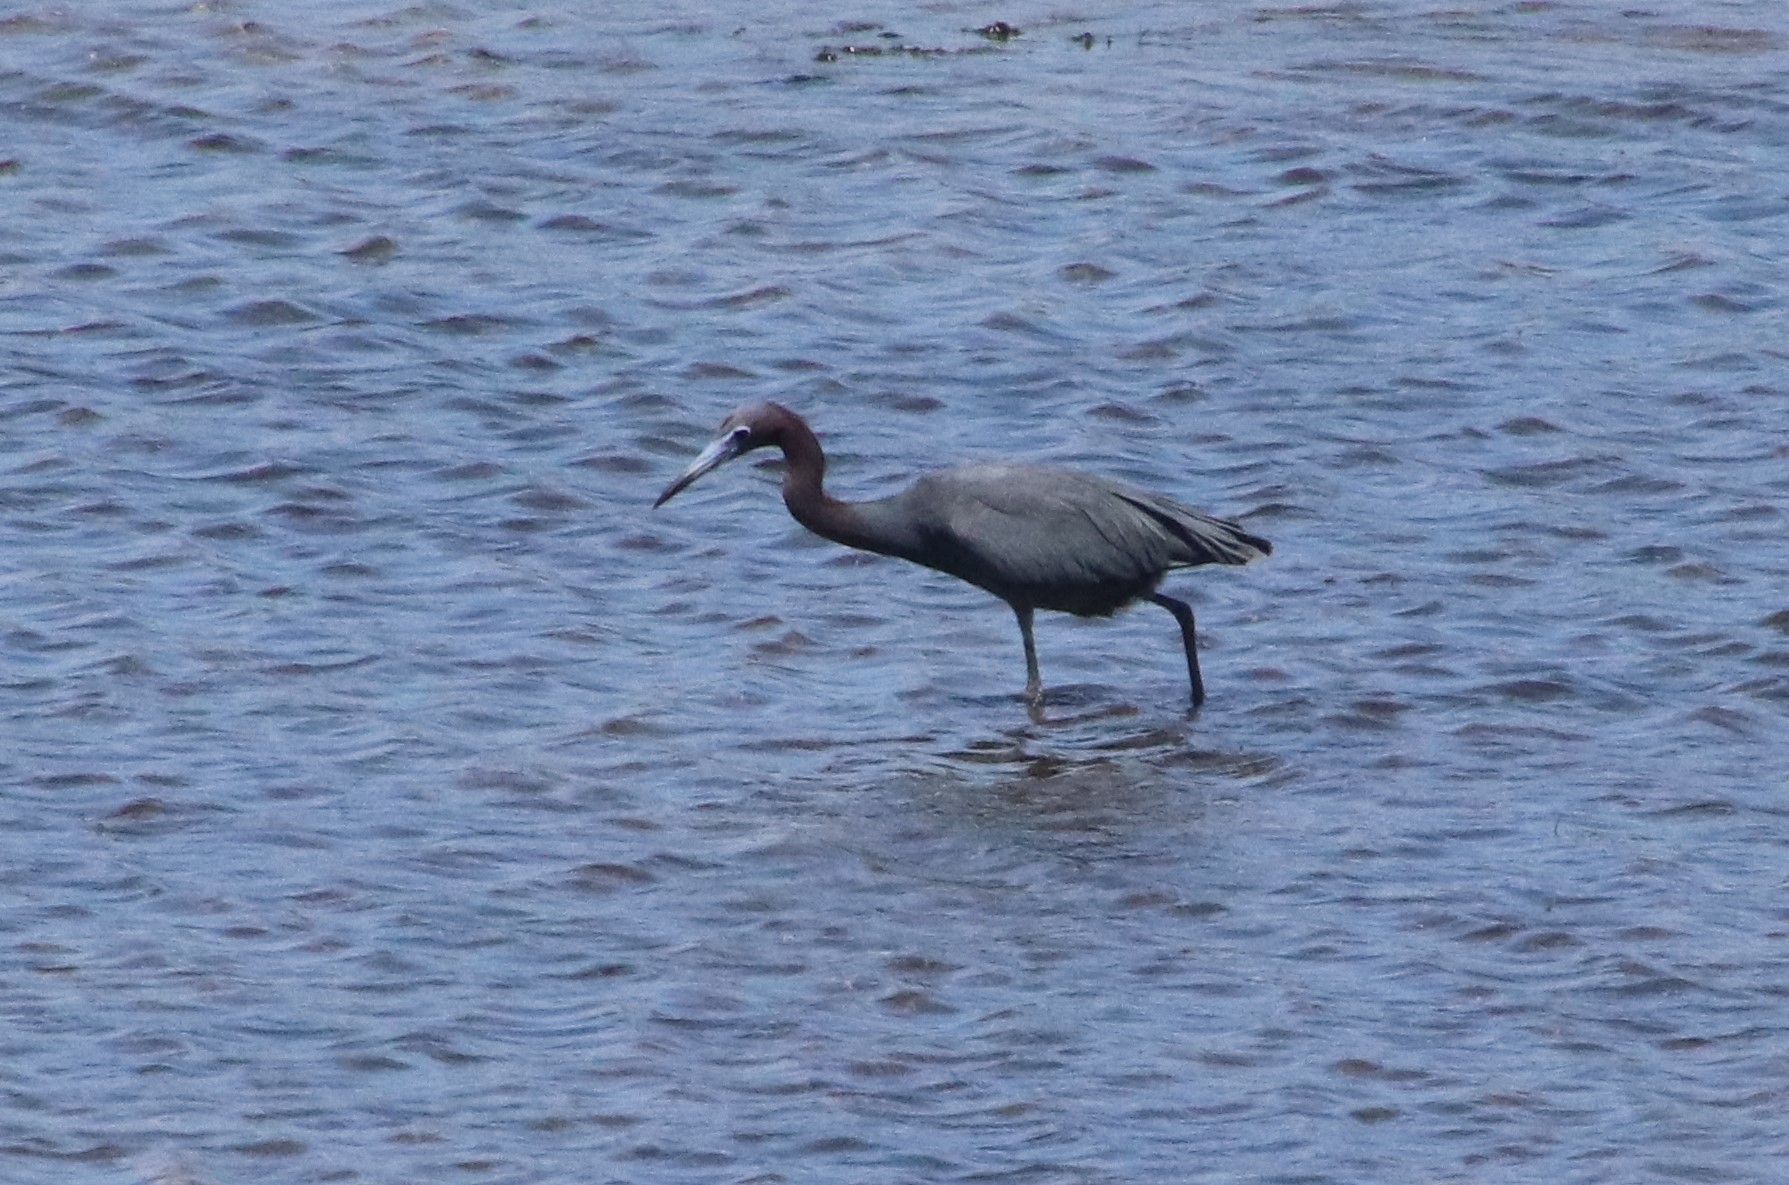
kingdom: Animalia
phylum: Chordata
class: Aves
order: Pelecaniformes
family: Ardeidae
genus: Egretta
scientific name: Egretta caerulea
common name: Little blue heron
